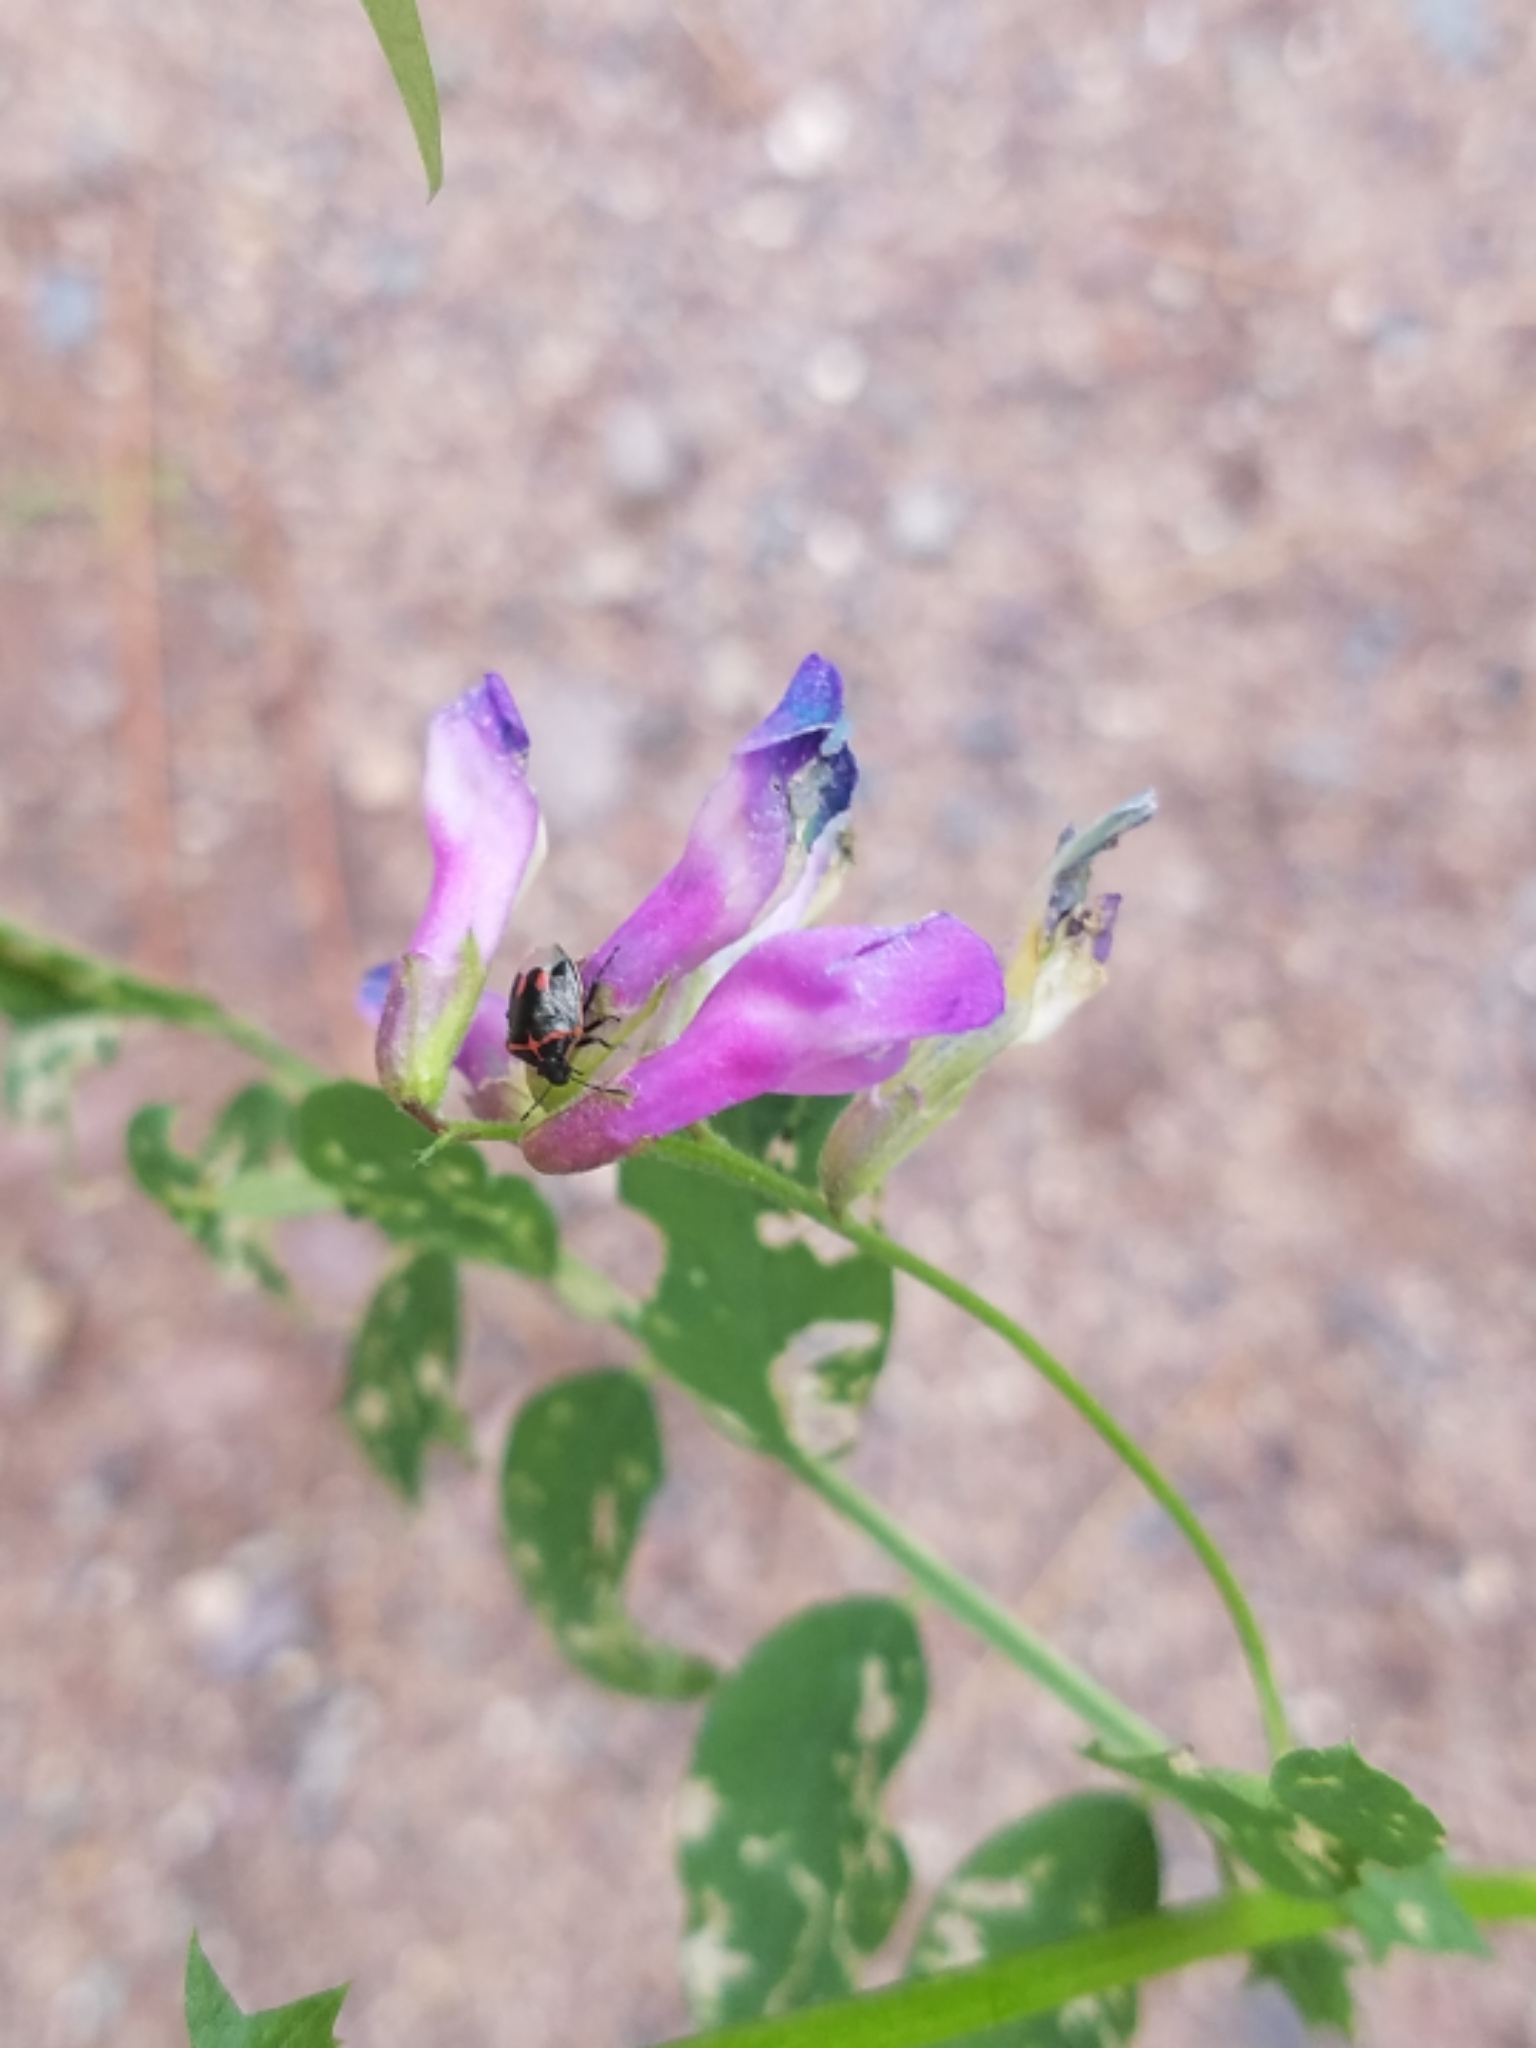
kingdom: Plantae
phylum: Tracheophyta
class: Magnoliopsida
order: Fabales
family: Fabaceae
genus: Vicia
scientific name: Vicia americana
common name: American vetch
